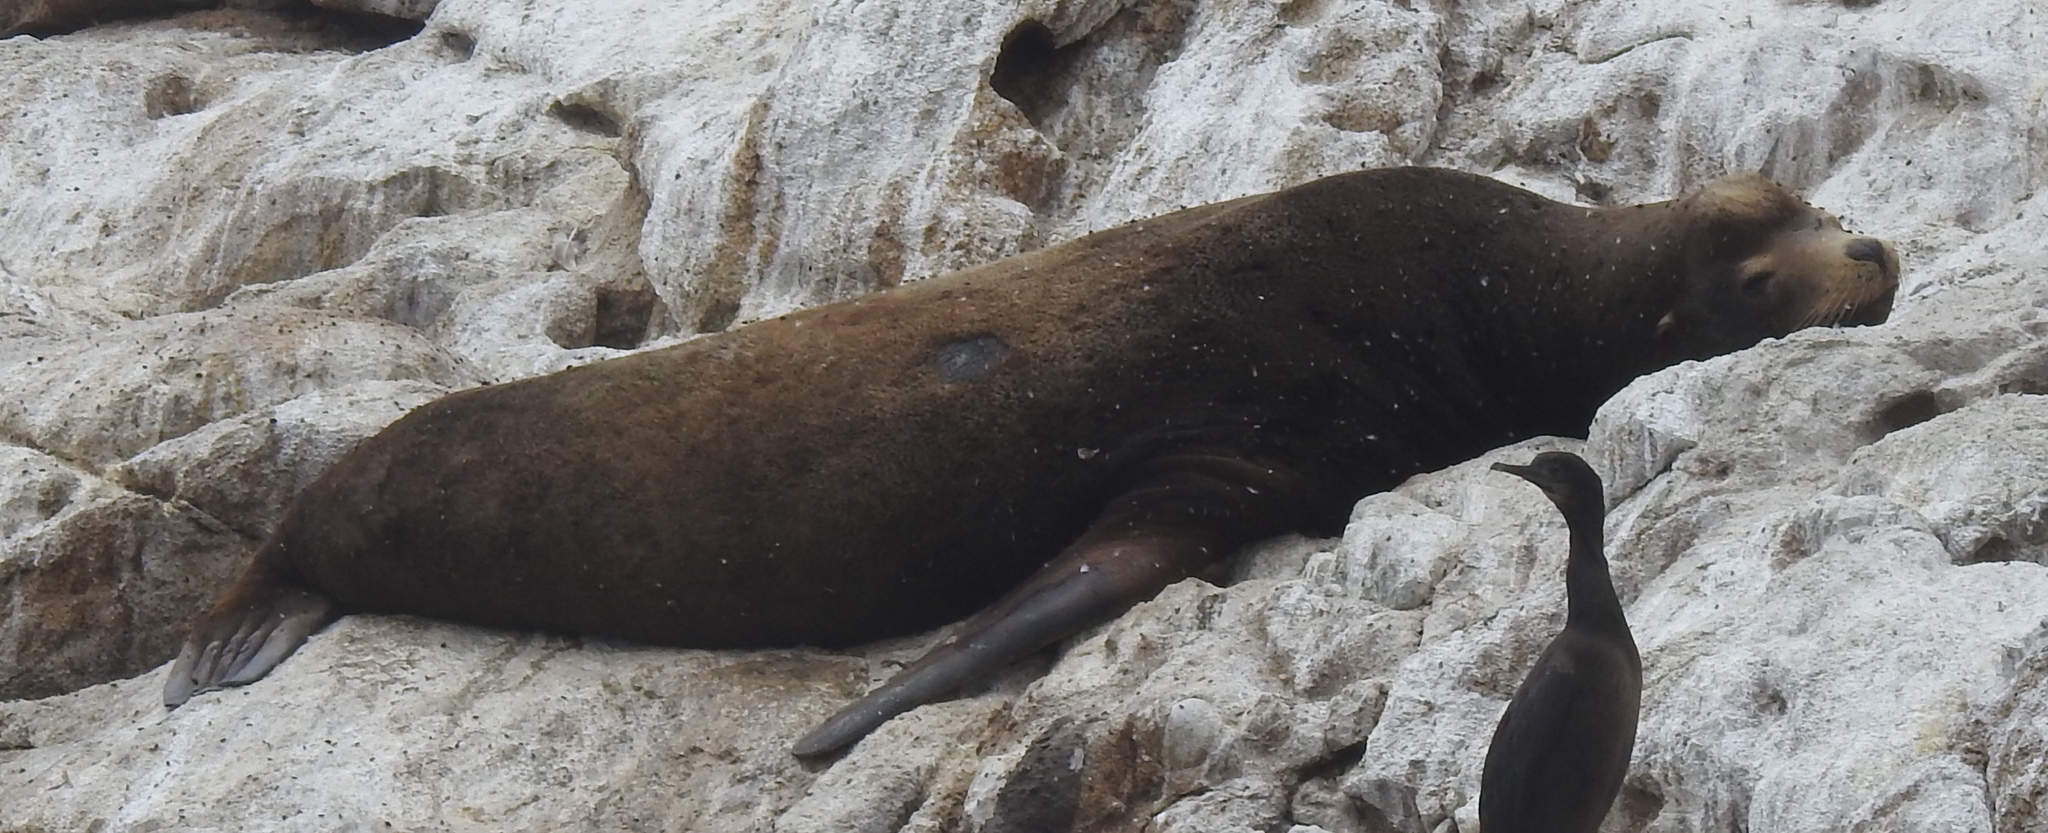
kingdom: Animalia
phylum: Chordata
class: Mammalia
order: Carnivora
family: Otariidae
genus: Zalophus
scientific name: Zalophus californianus
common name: California sea lion
